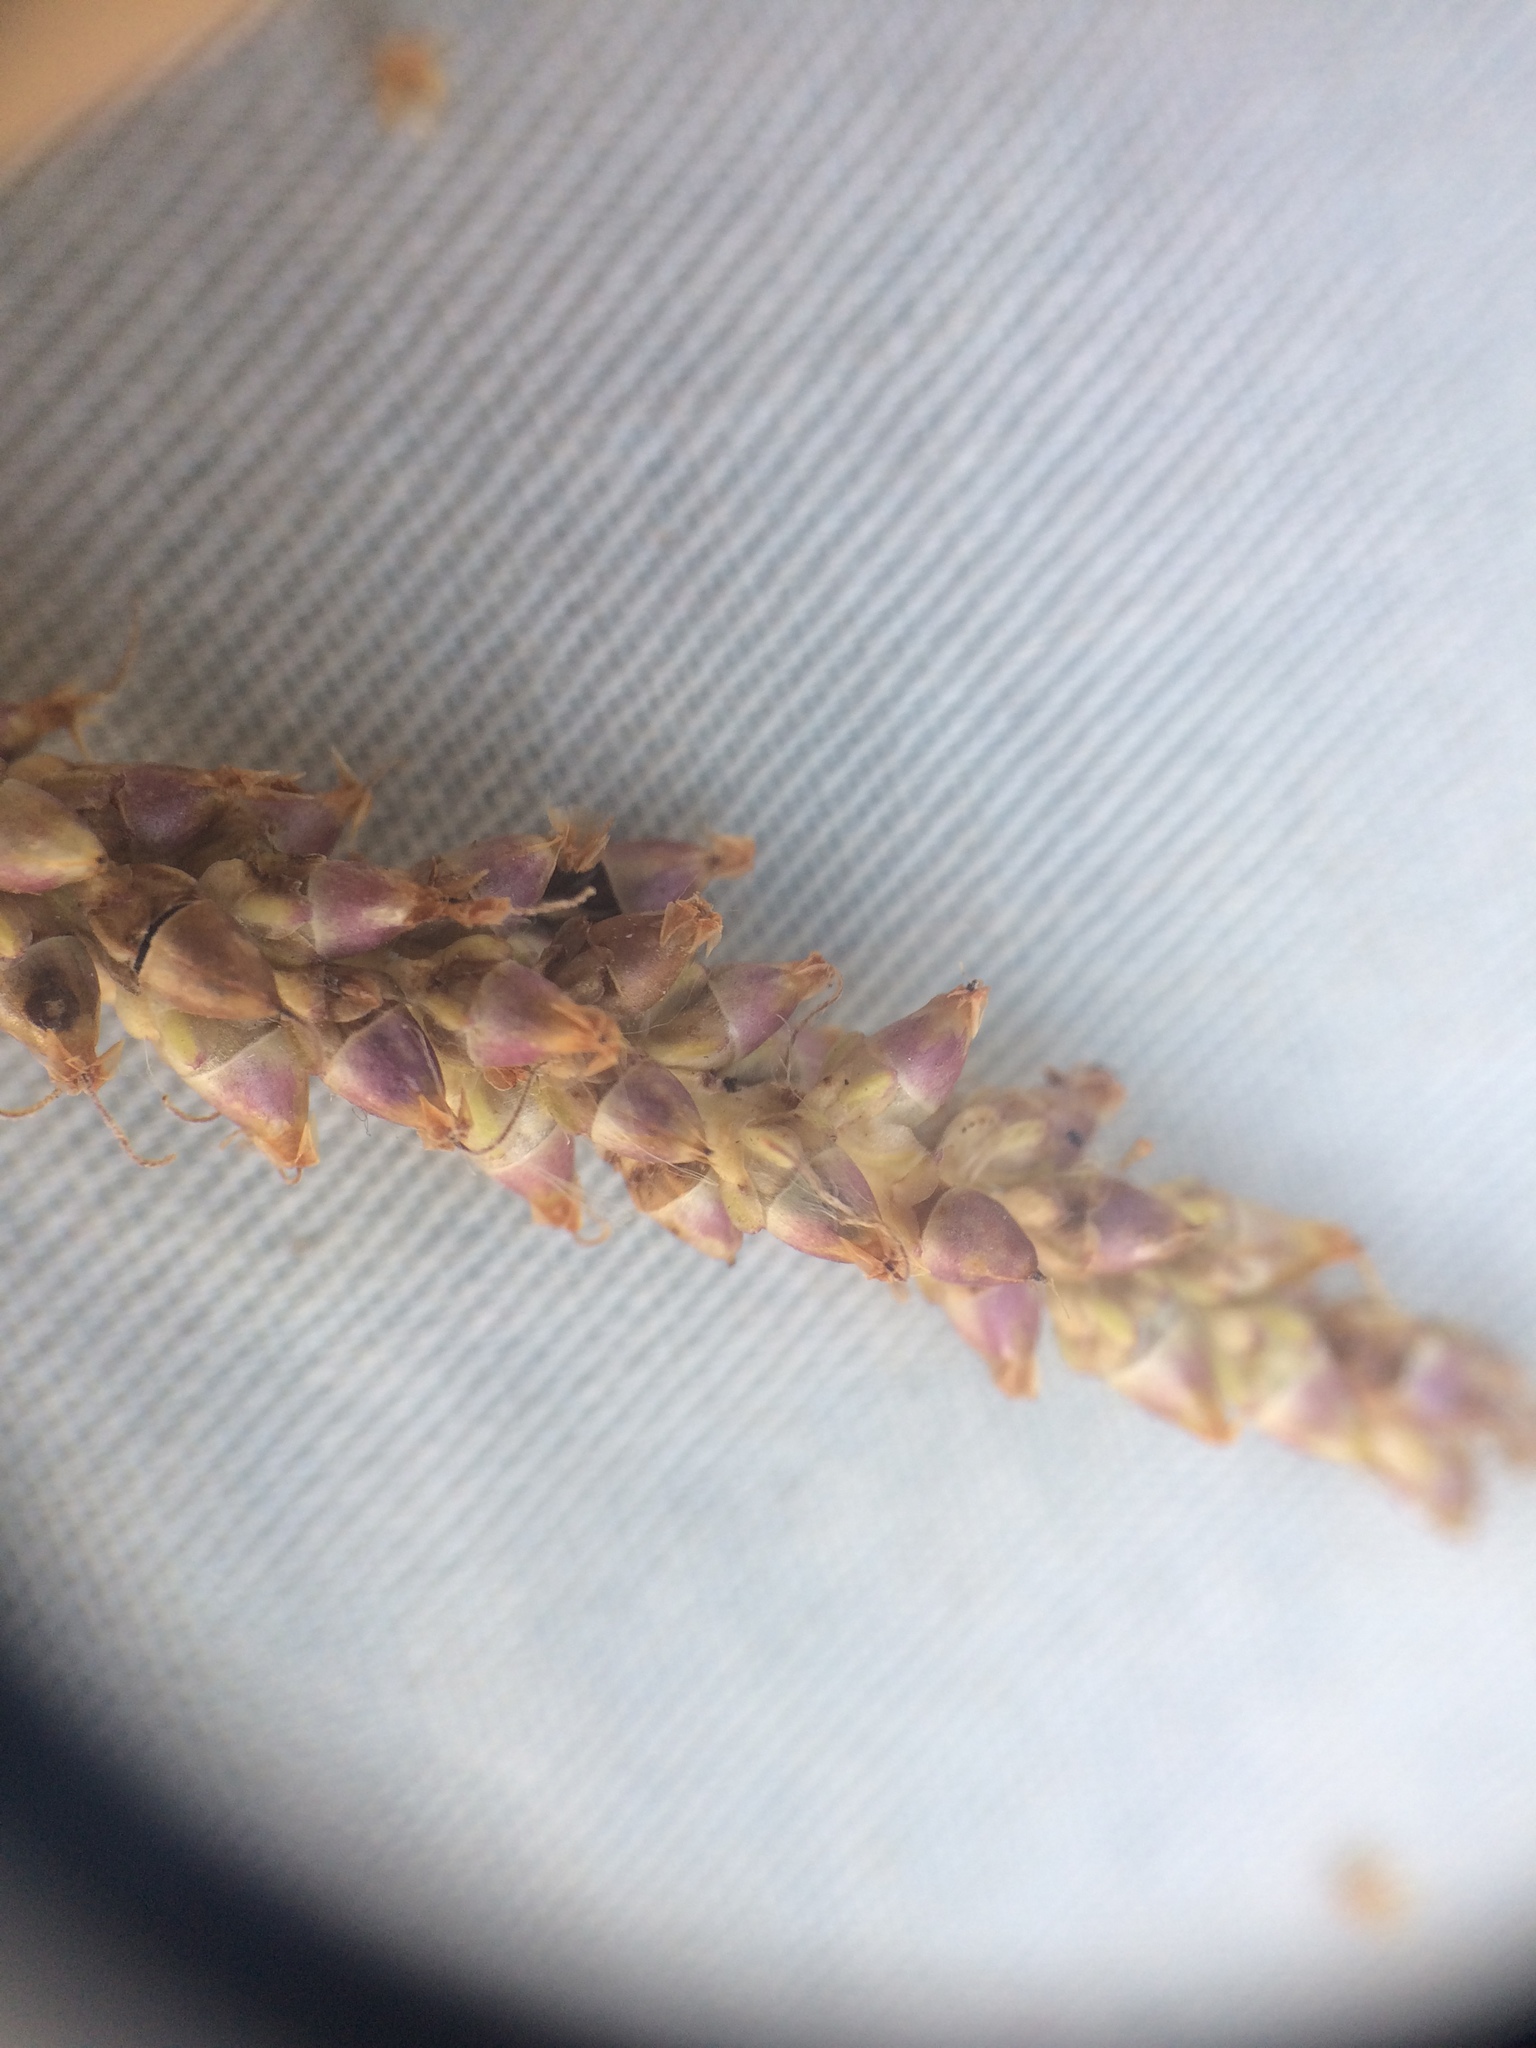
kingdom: Plantae
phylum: Tracheophyta
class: Magnoliopsida
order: Lamiales
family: Plantaginaceae
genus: Plantago
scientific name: Plantago major
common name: Common plantain
